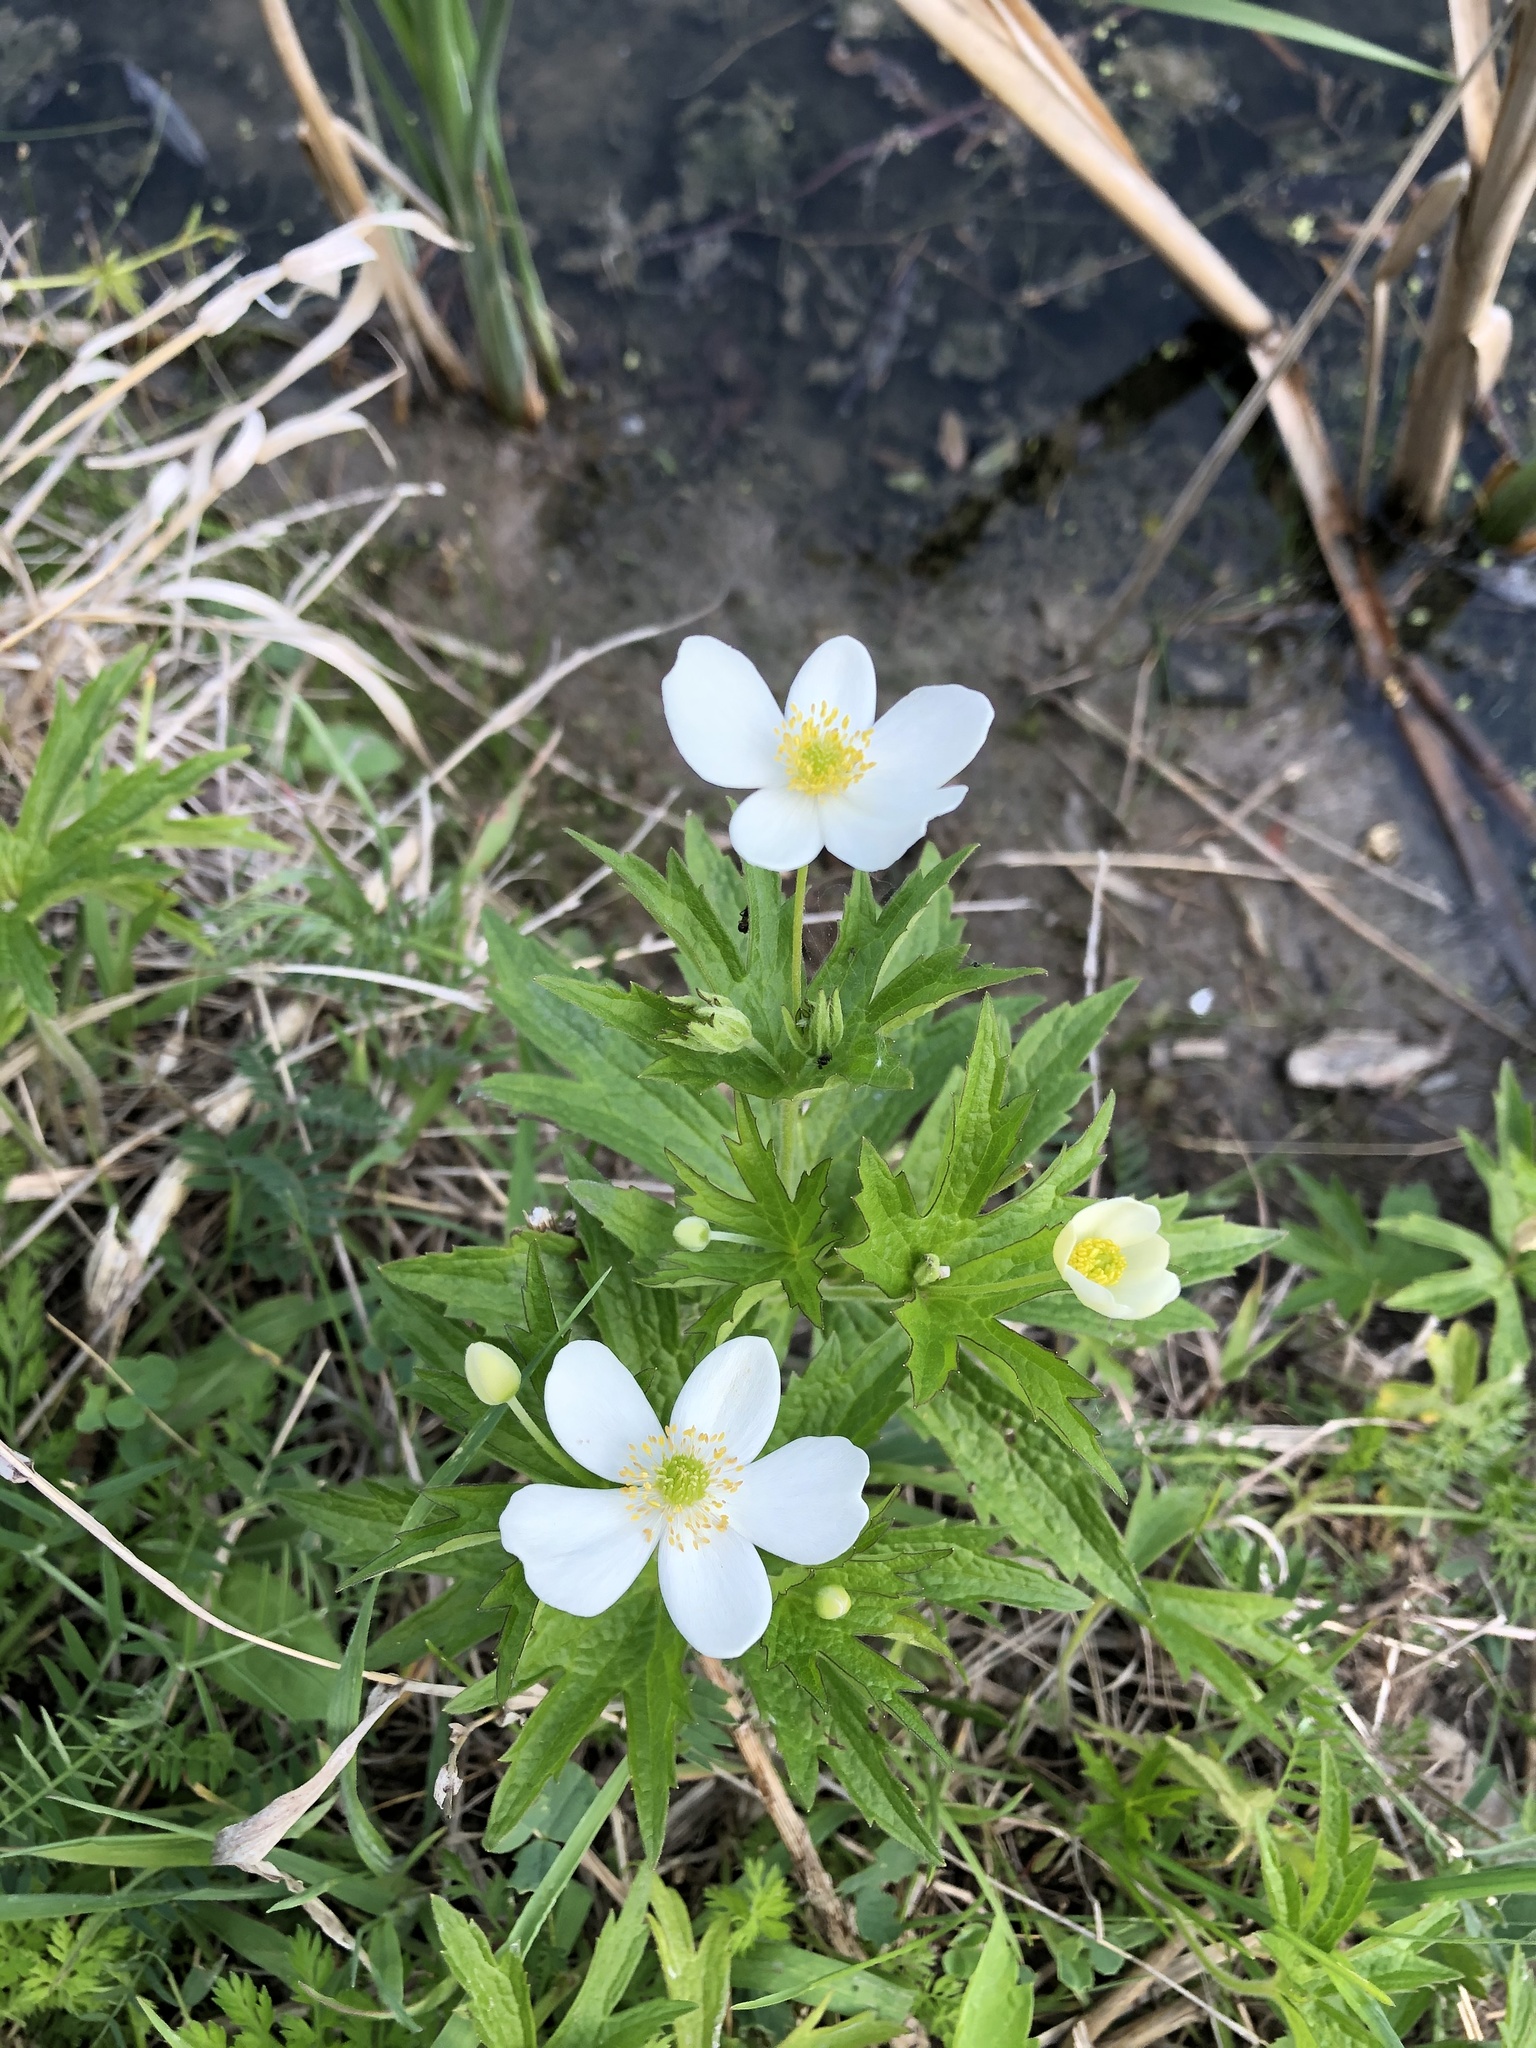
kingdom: Plantae
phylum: Tracheophyta
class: Magnoliopsida
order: Ranunculales
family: Ranunculaceae
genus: Anemonastrum
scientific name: Anemonastrum canadense
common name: Canada anemone
